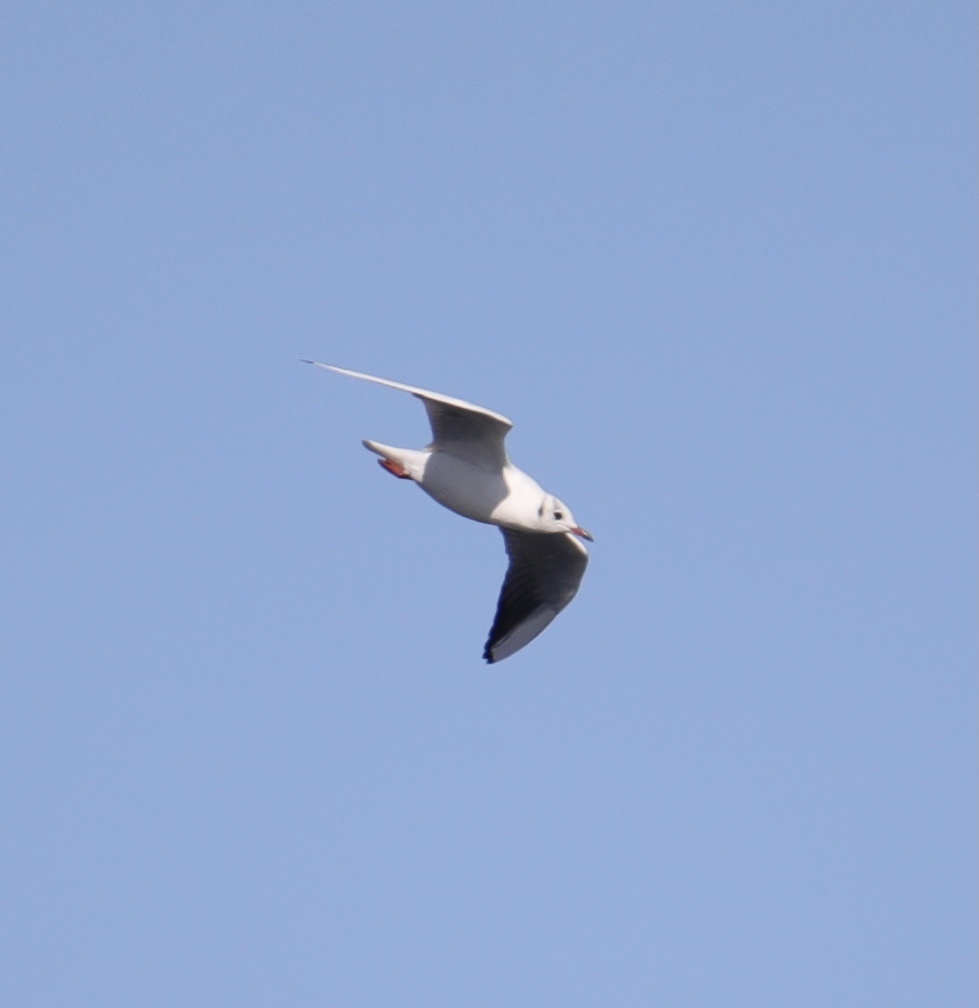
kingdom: Animalia
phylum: Chordata
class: Aves
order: Charadriiformes
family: Laridae
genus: Chroicocephalus
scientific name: Chroicocephalus ridibundus
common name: Black-headed gull
